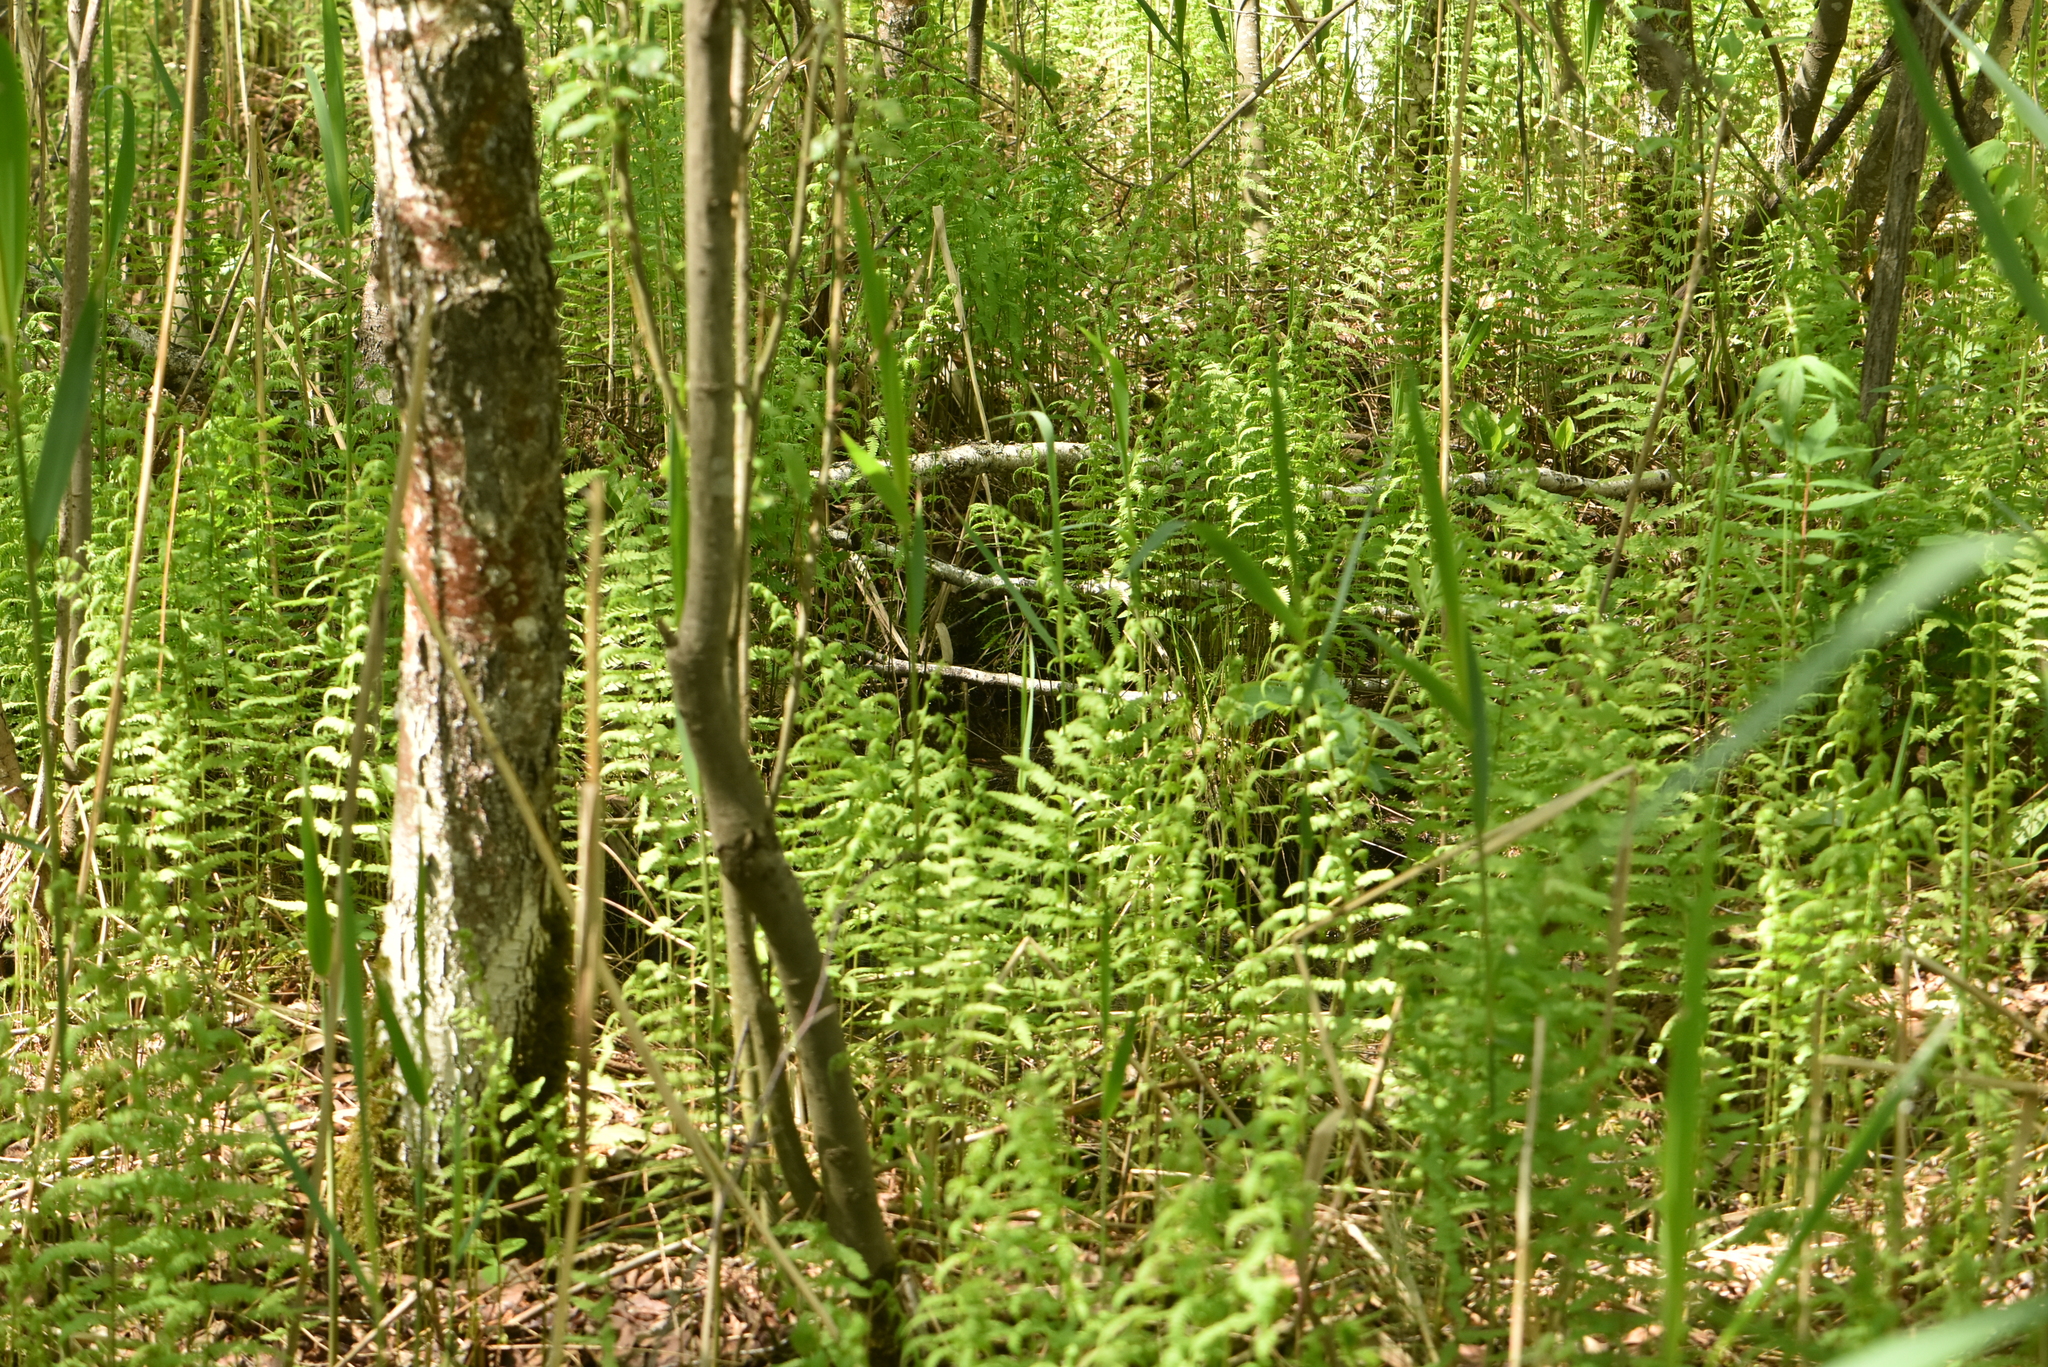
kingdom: Plantae
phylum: Tracheophyta
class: Polypodiopsida
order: Polypodiales
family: Thelypteridaceae
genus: Thelypteris
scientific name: Thelypteris palustris
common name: Marsh fern
